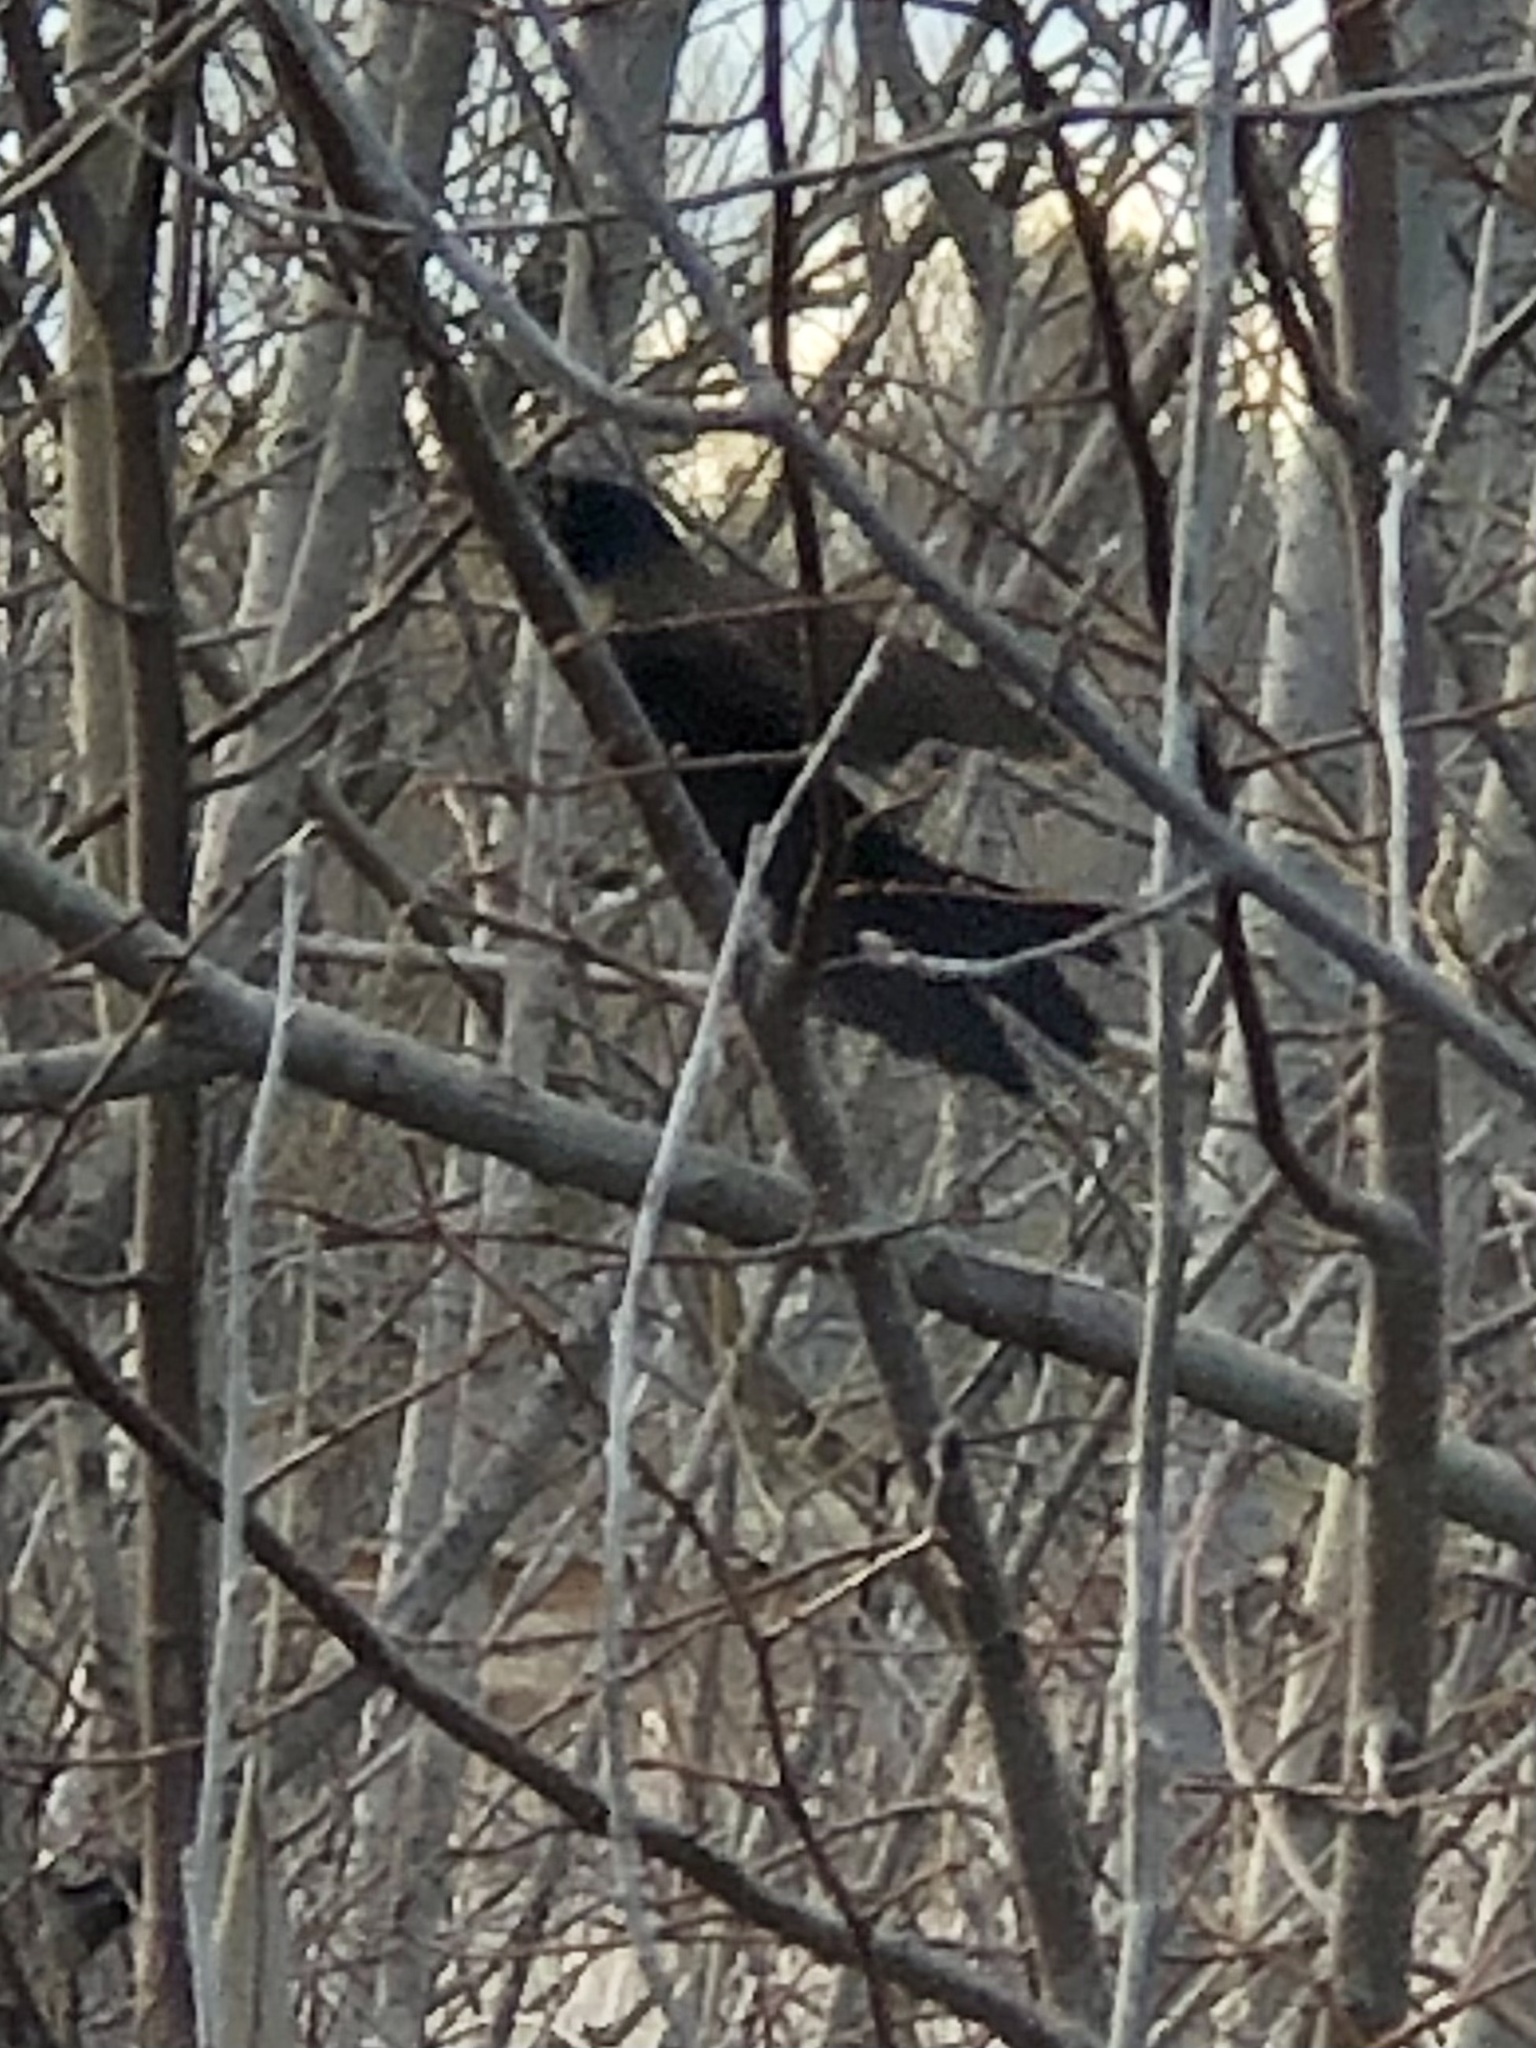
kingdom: Animalia
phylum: Chordata
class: Aves
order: Passeriformes
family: Icteridae
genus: Quiscalus
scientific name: Quiscalus quiscula
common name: Common grackle
